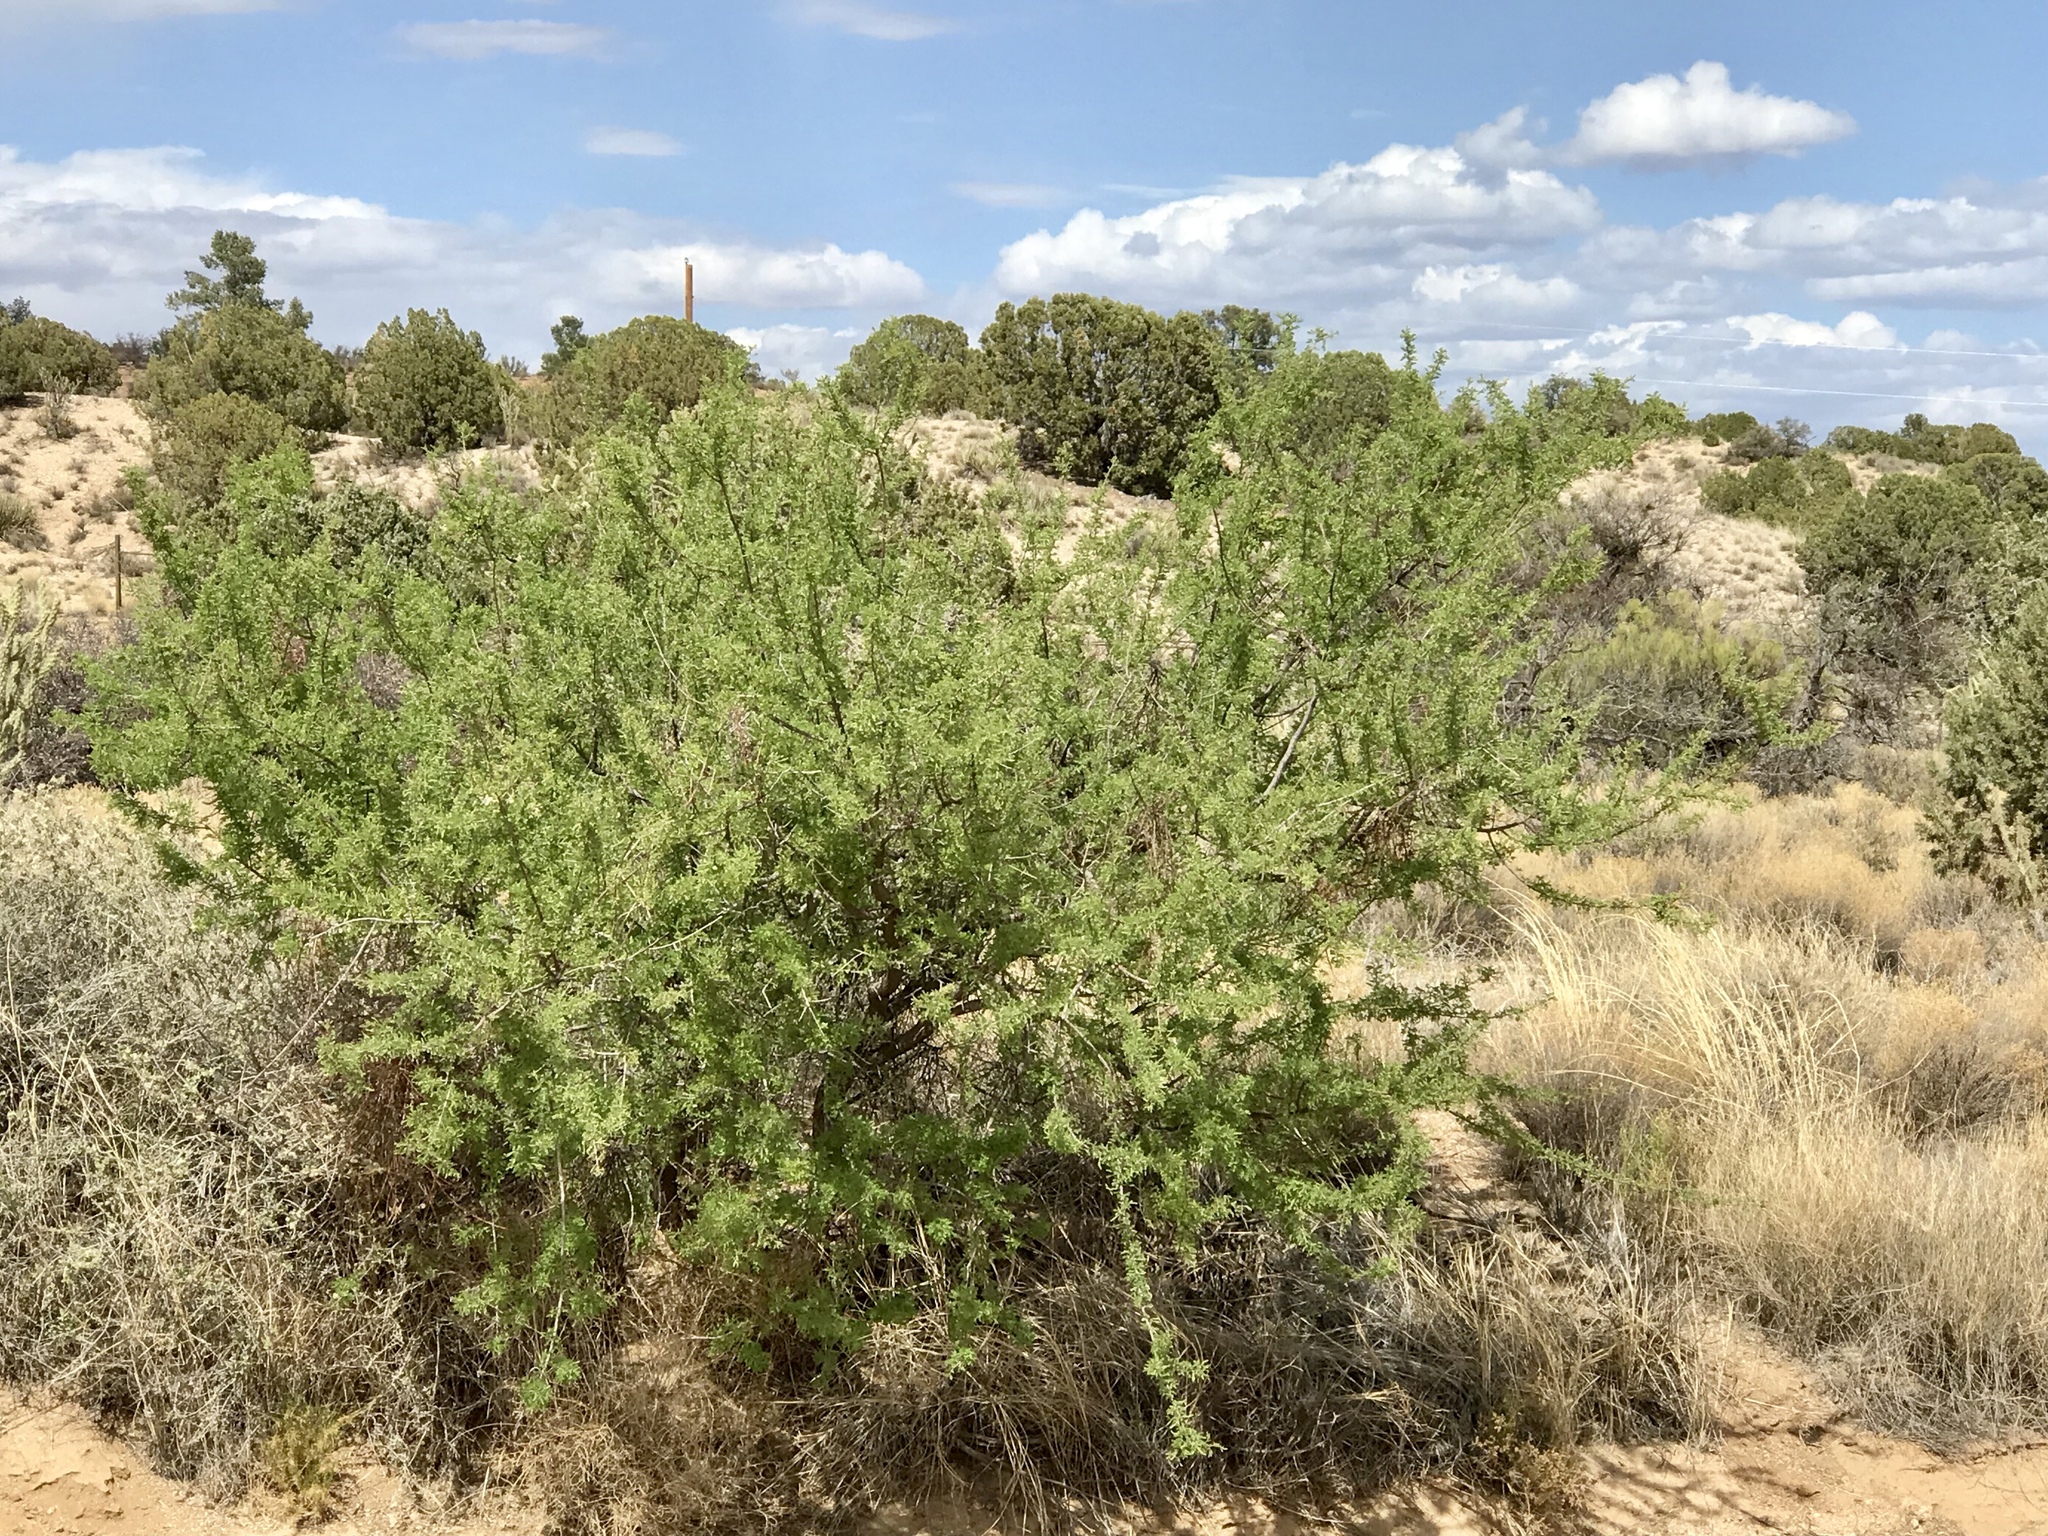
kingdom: Plantae
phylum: Tracheophyta
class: Magnoliopsida
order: Fabales
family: Fabaceae
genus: Senegalia
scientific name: Senegalia greggii
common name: Texas-mimosa
